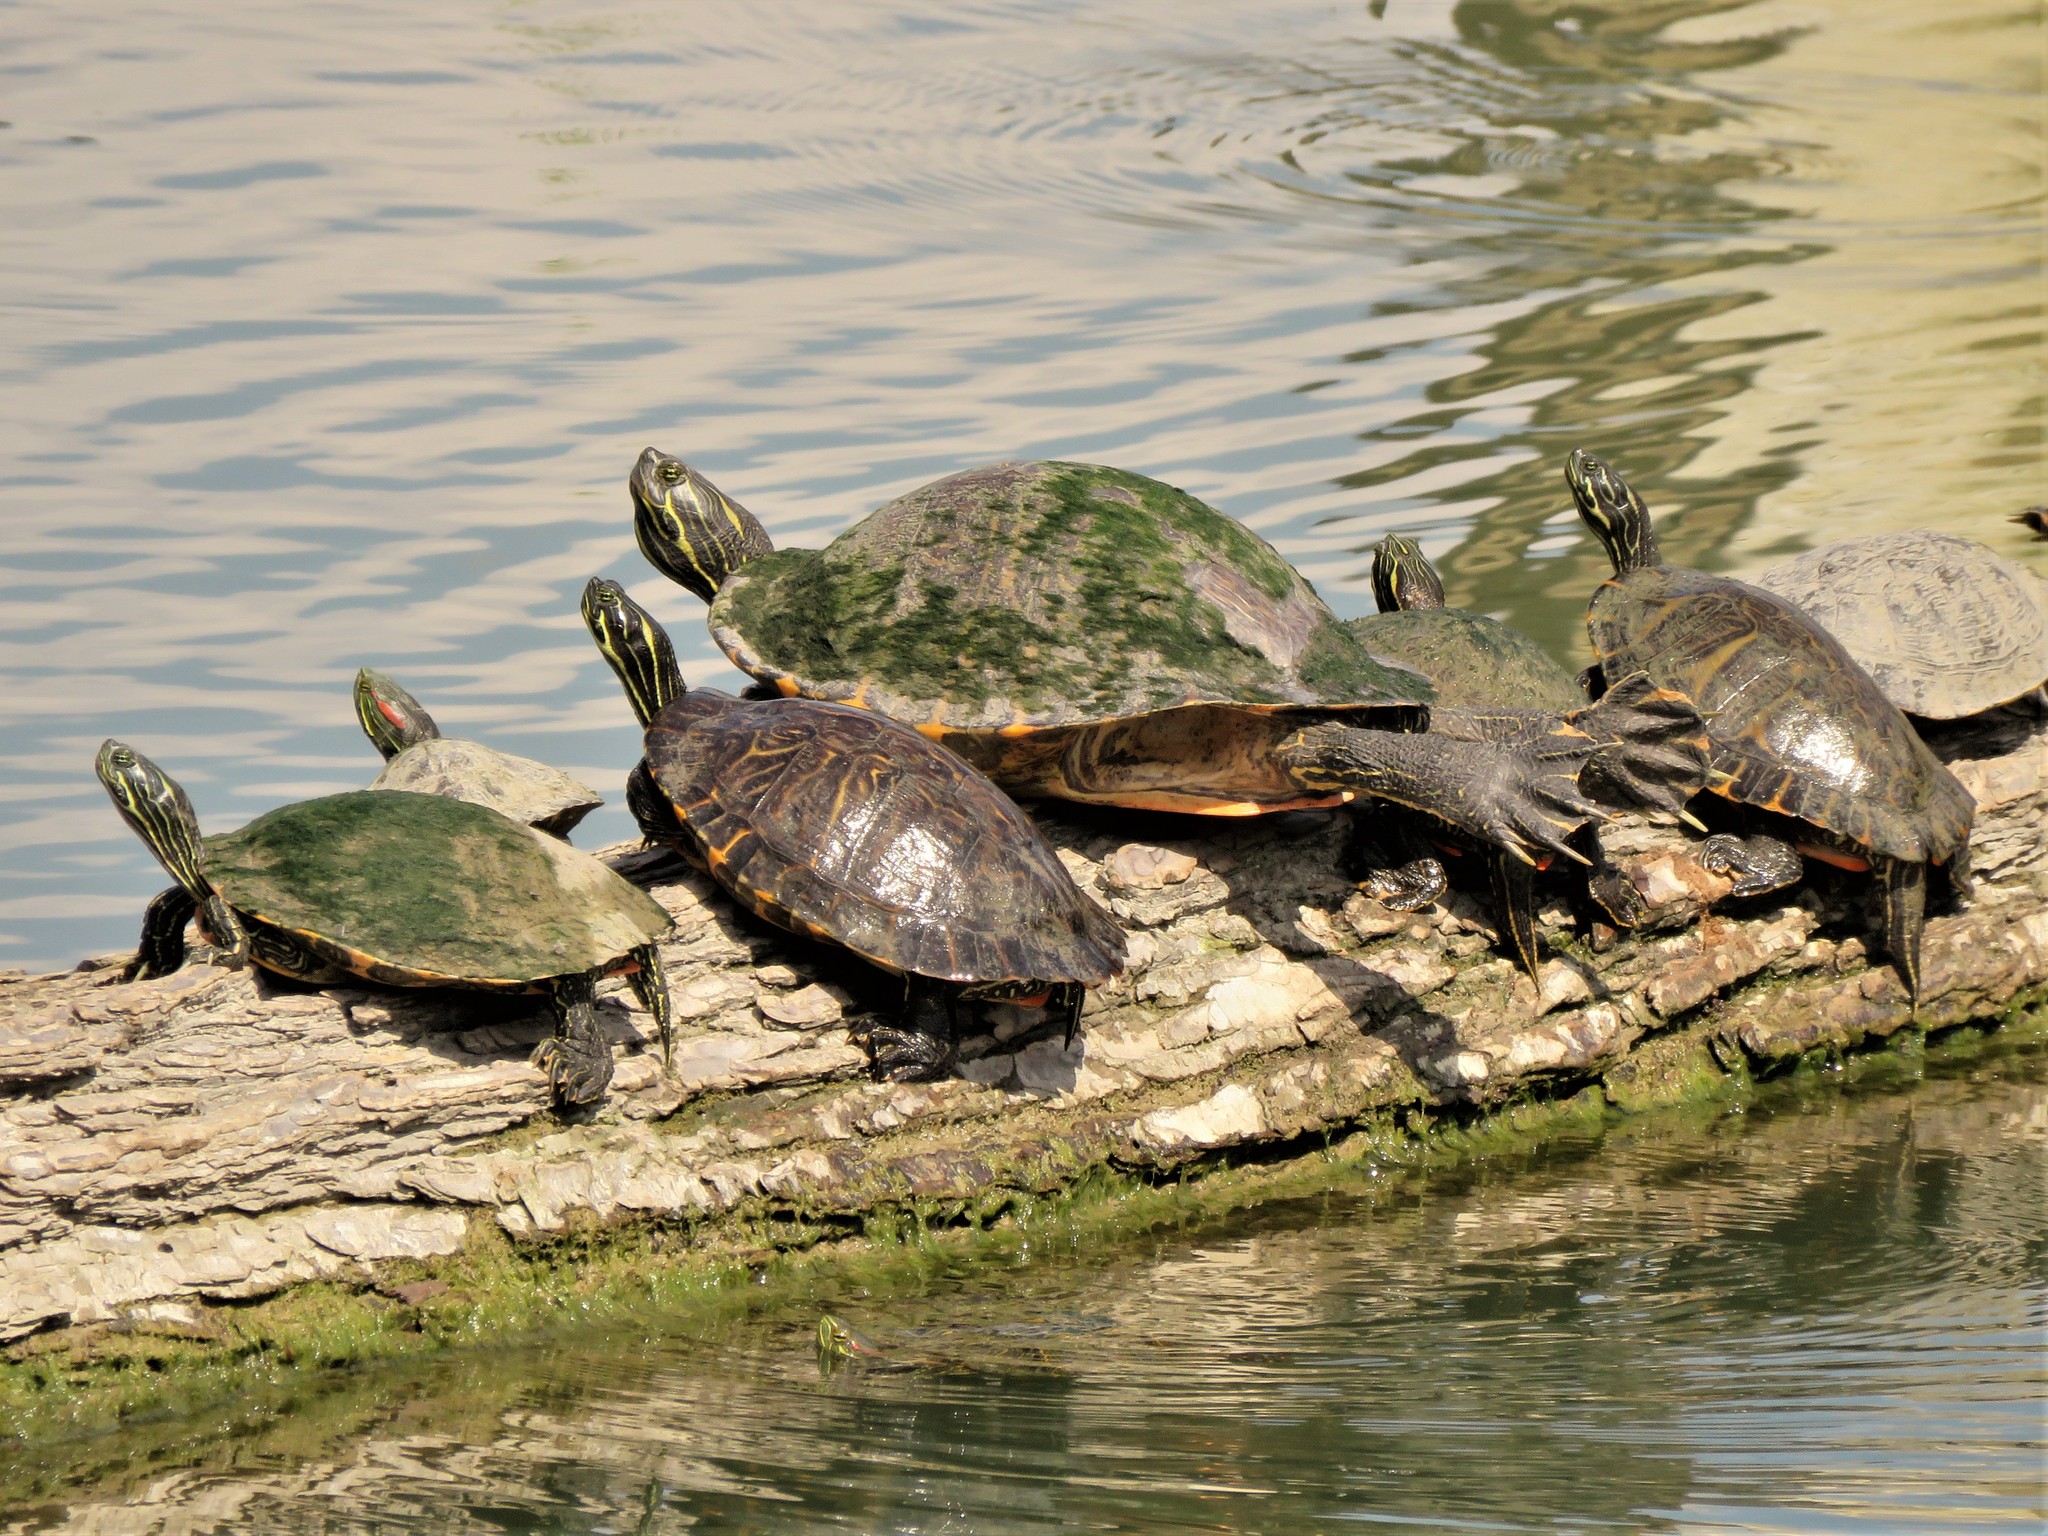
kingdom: Animalia
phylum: Chordata
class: Testudines
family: Emydidae
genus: Trachemys
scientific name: Trachemys scripta
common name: Slider
